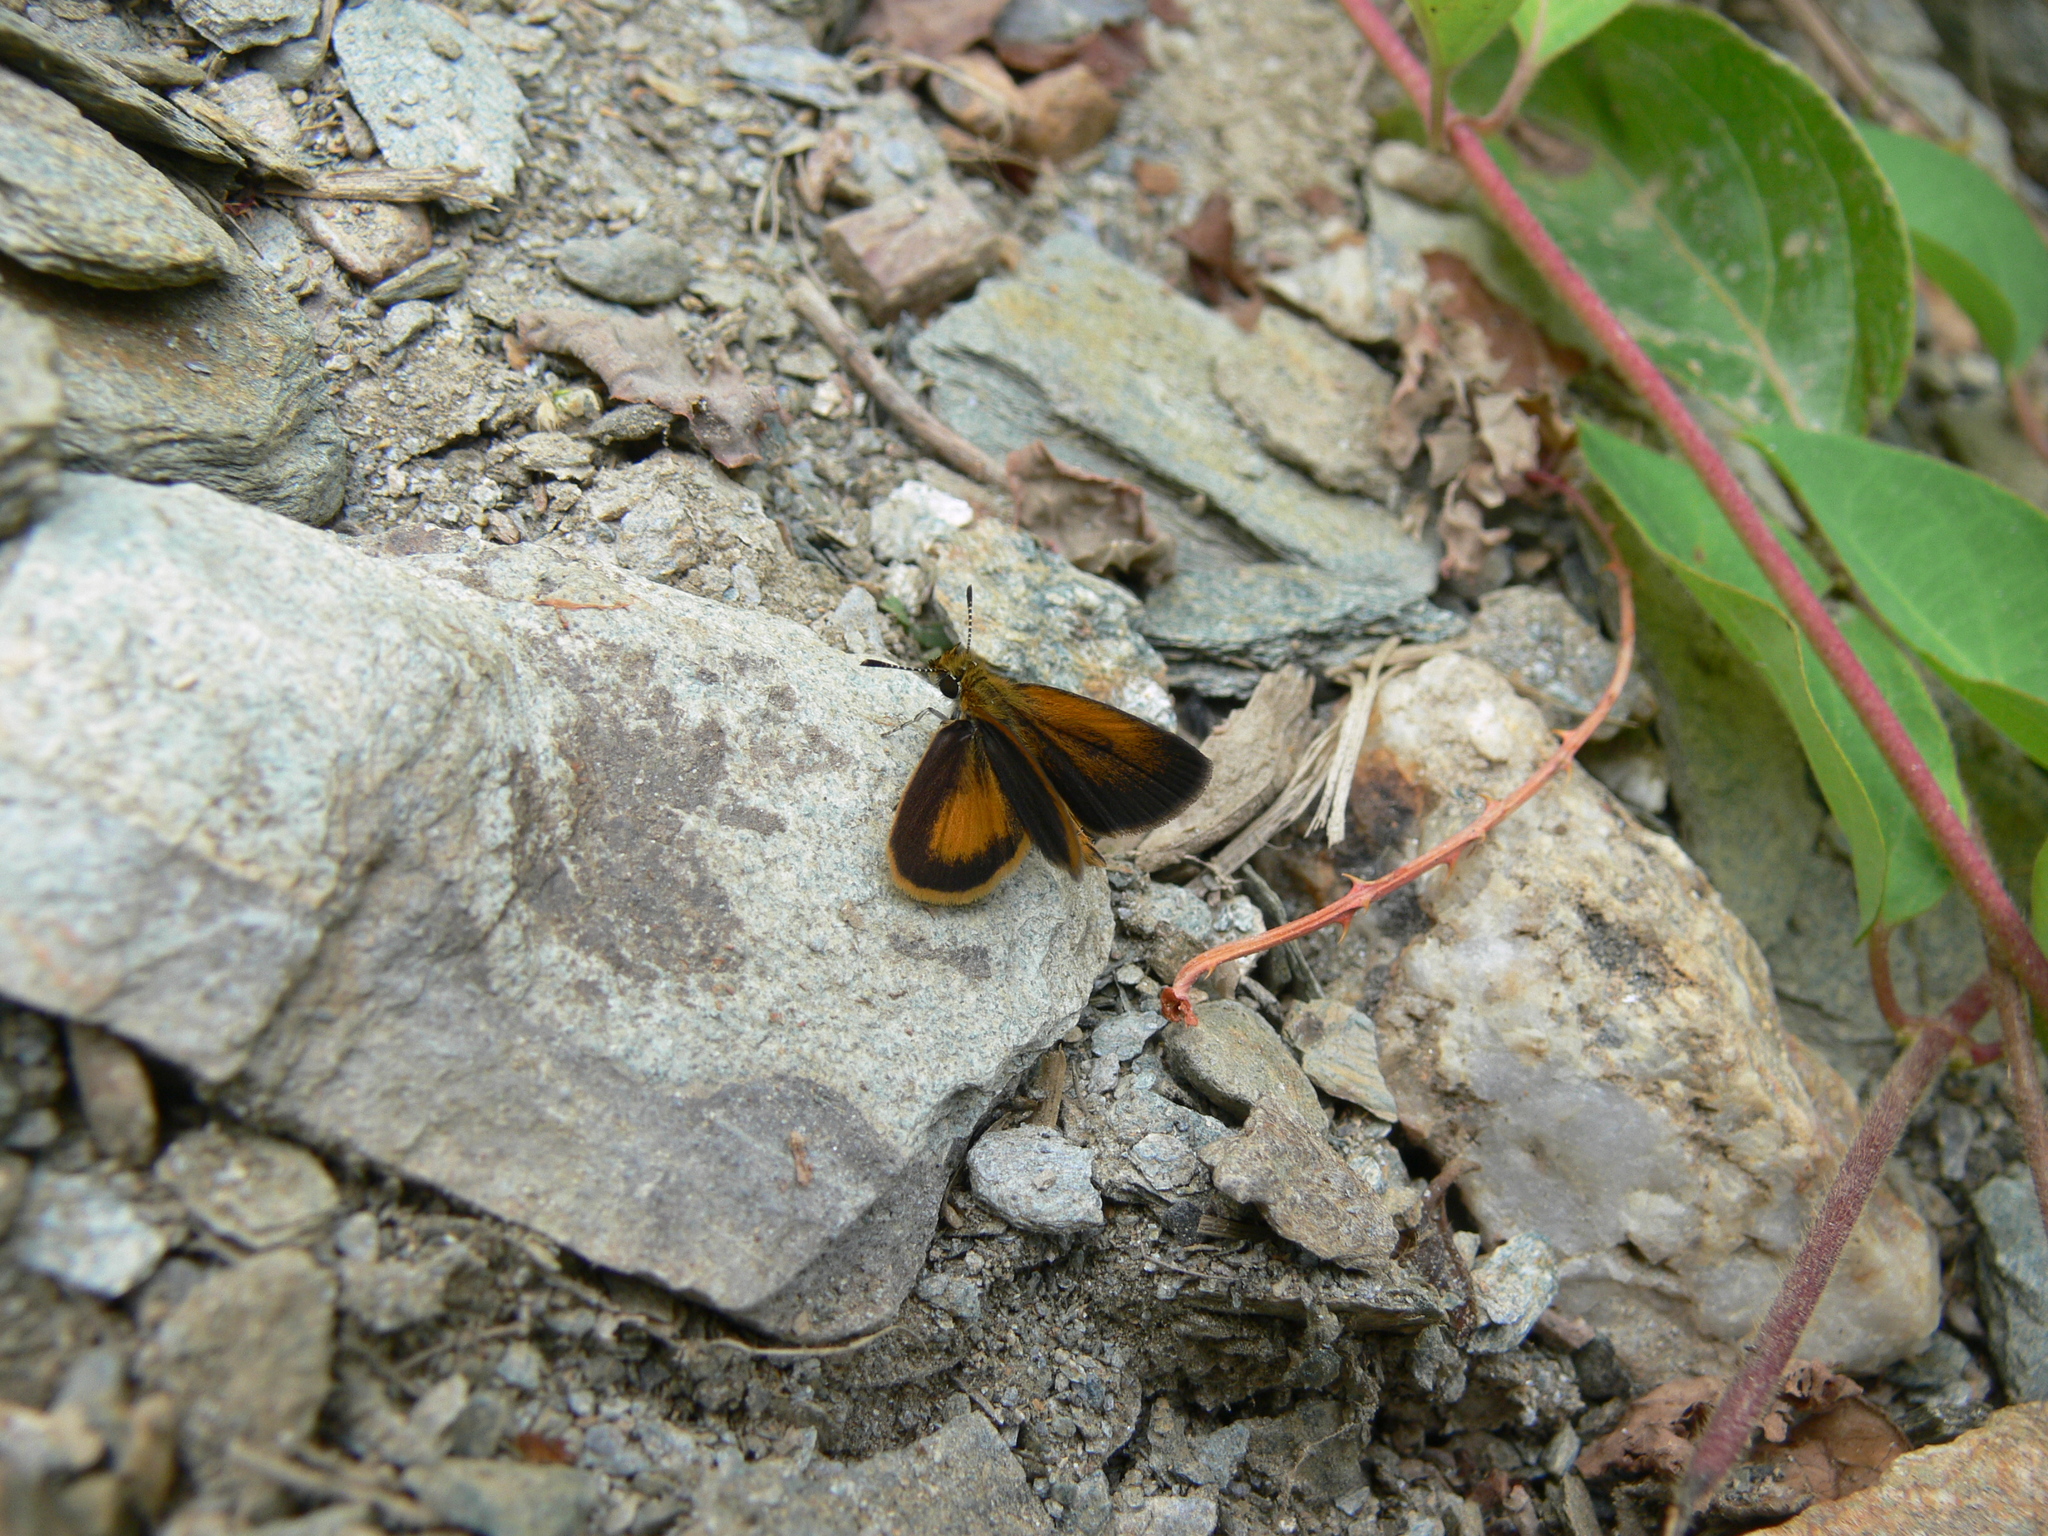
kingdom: Animalia
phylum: Arthropoda
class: Insecta
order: Lepidoptera
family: Hesperiidae
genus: Ancyloxypha
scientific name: Ancyloxypha numitor
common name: Least skipper
